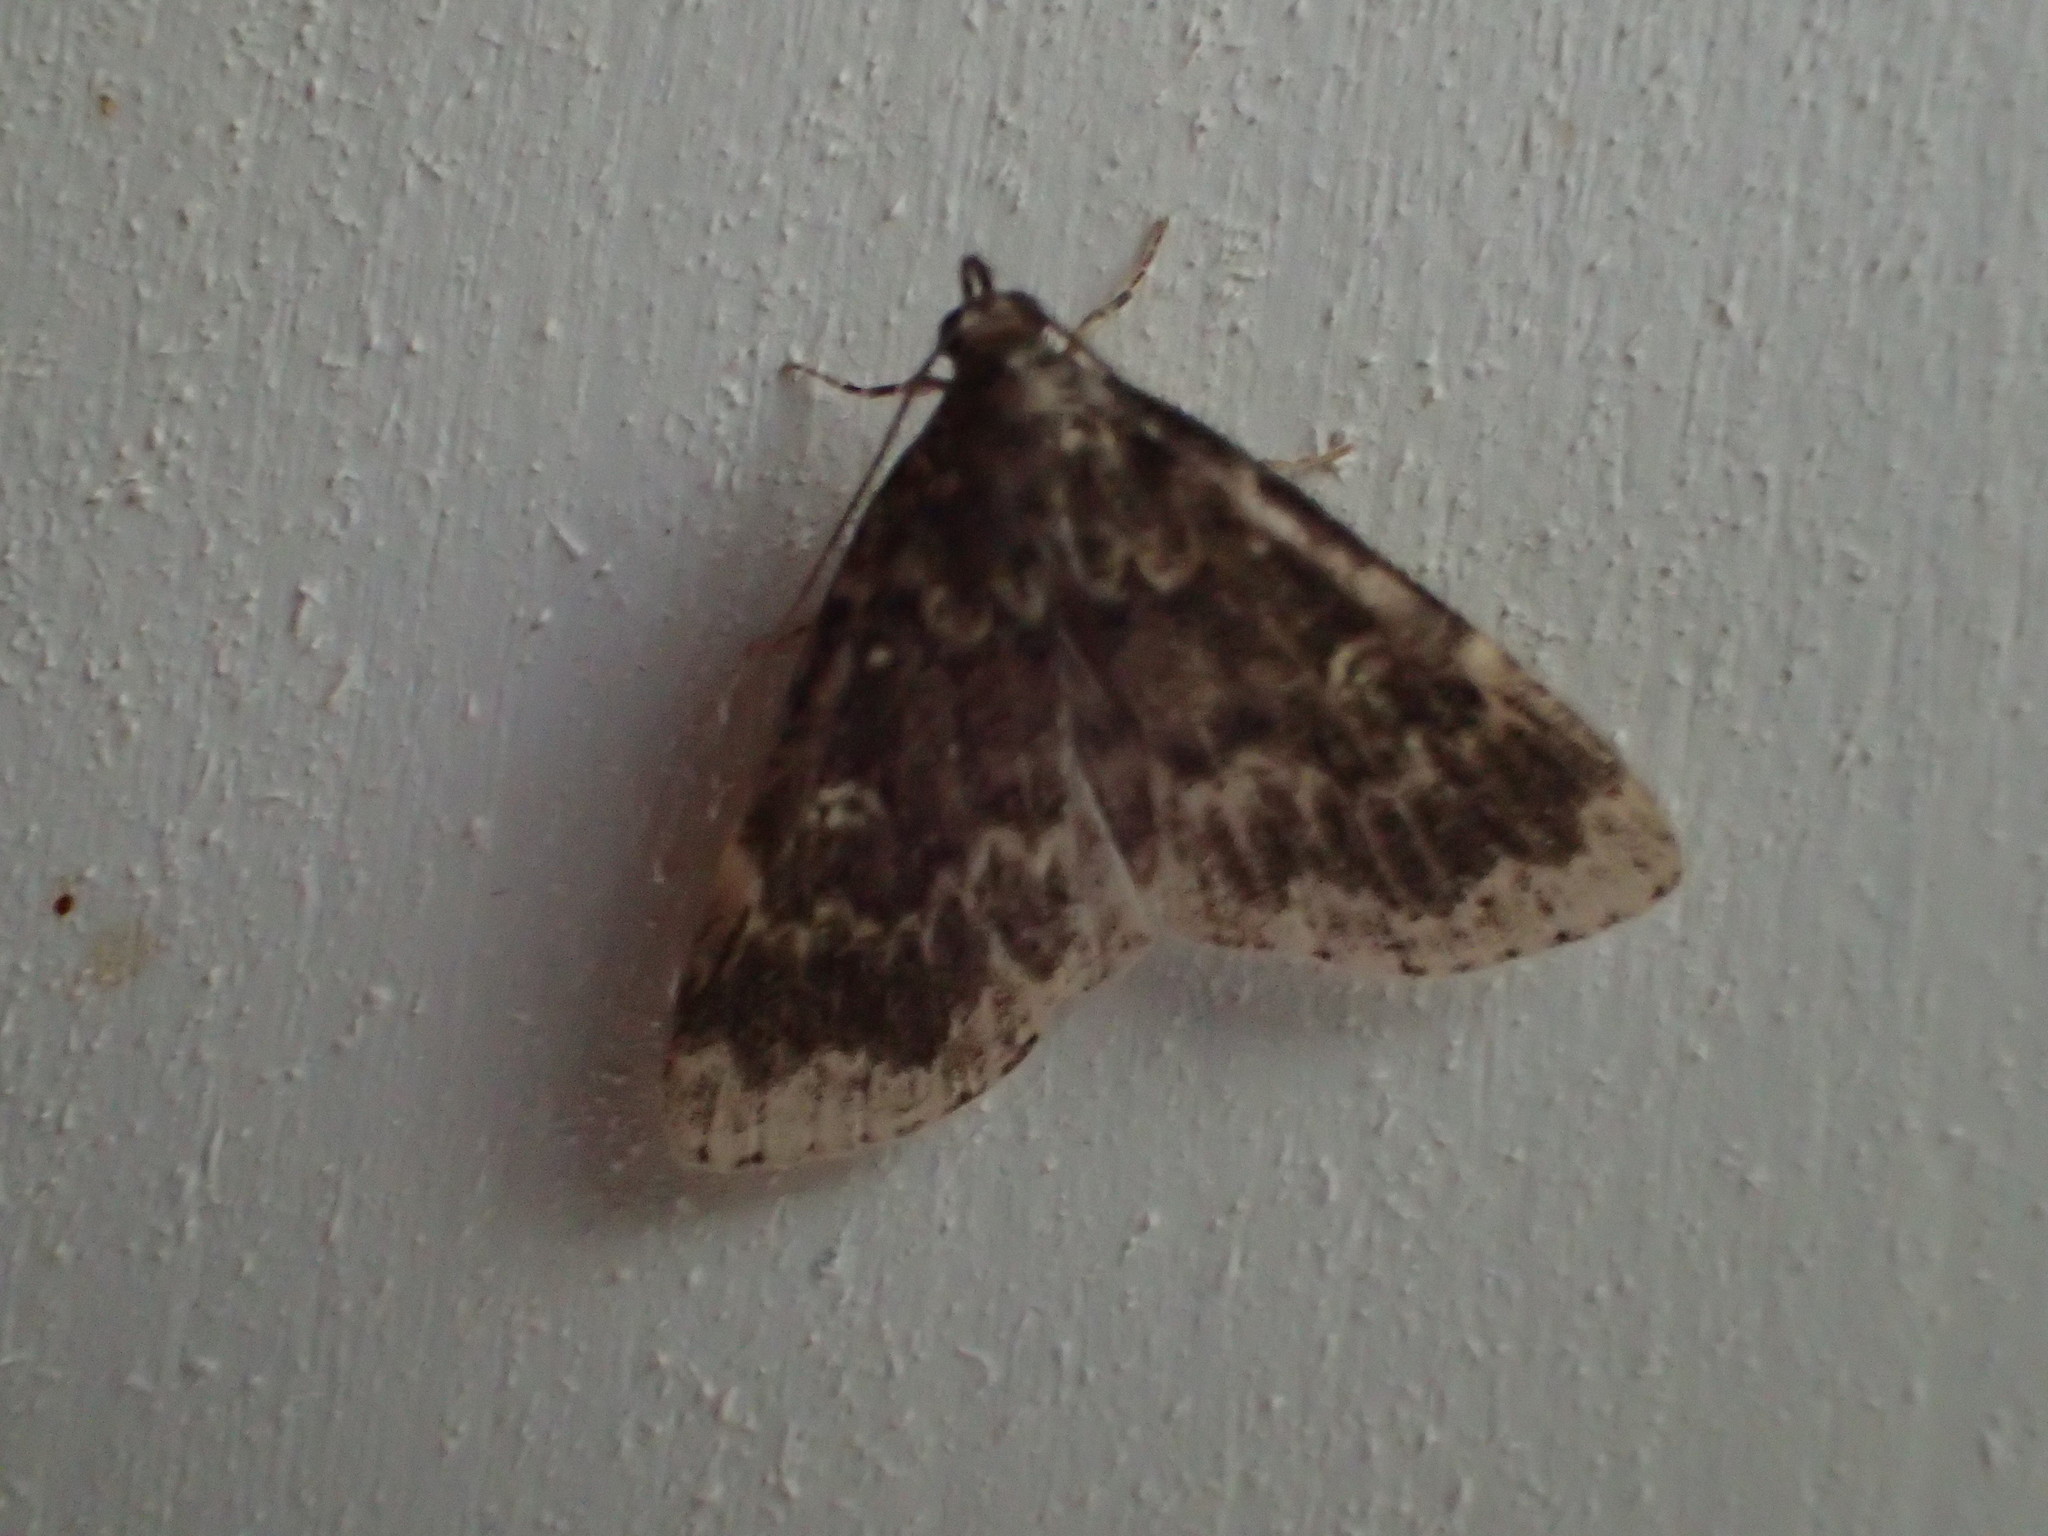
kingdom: Animalia
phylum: Arthropoda
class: Insecta
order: Lepidoptera
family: Erebidae
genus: Idia
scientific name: Idia lubricalis
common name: Twin-striped tabby
